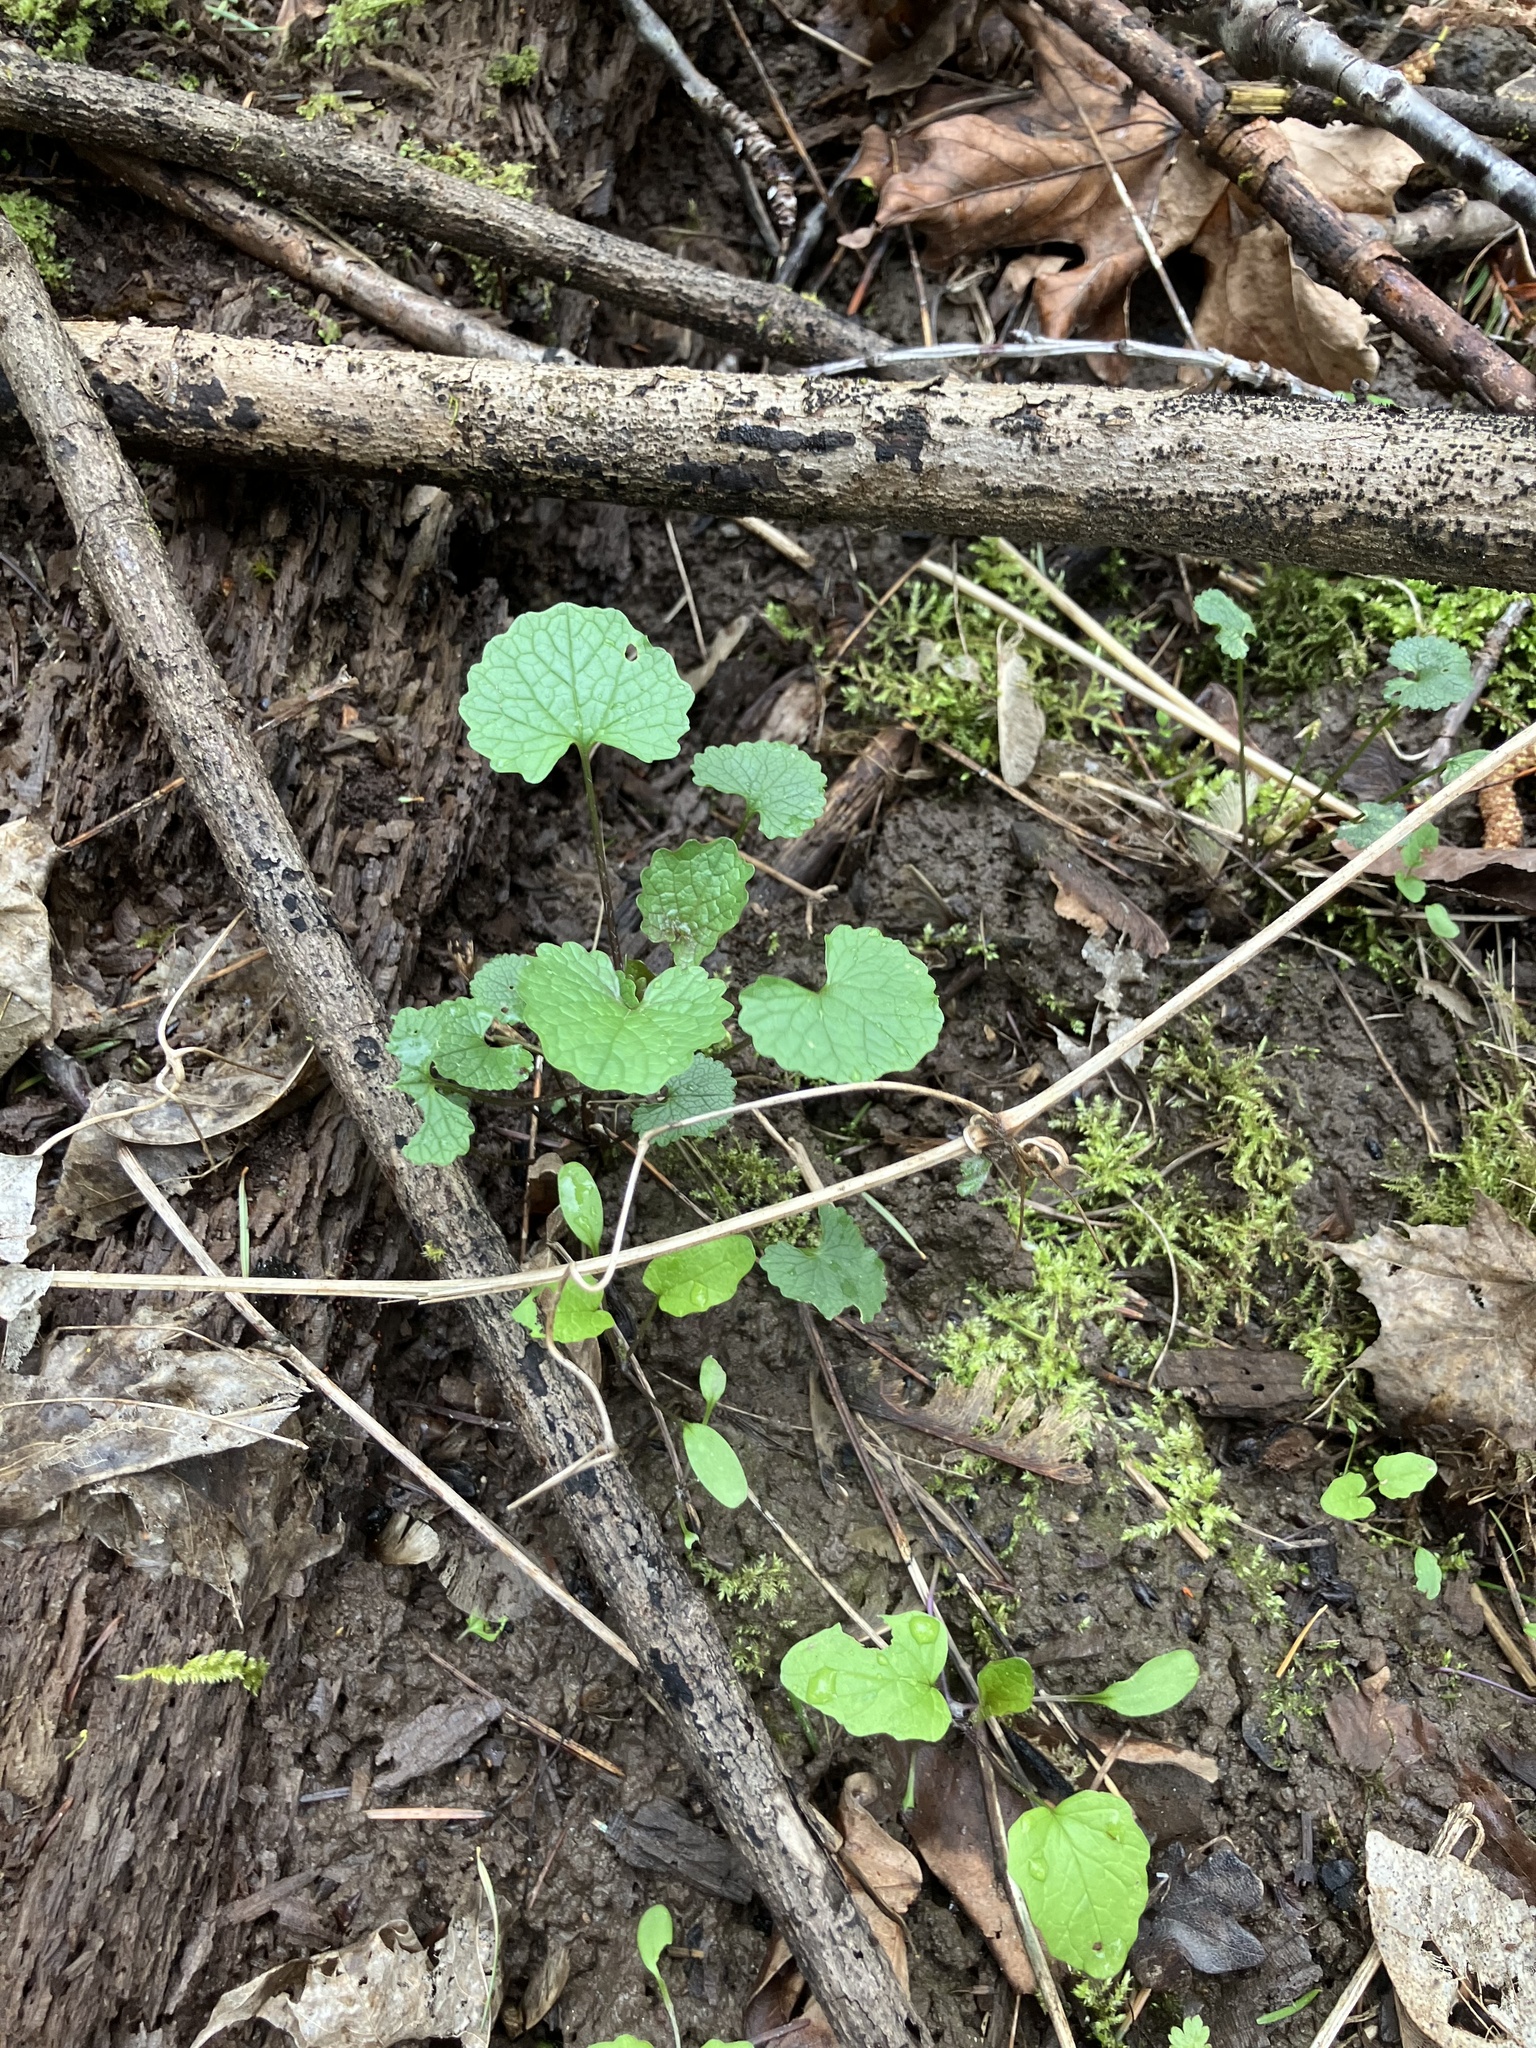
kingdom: Plantae
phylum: Tracheophyta
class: Magnoliopsida
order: Brassicales
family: Brassicaceae
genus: Alliaria
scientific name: Alliaria petiolata
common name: Garlic mustard
